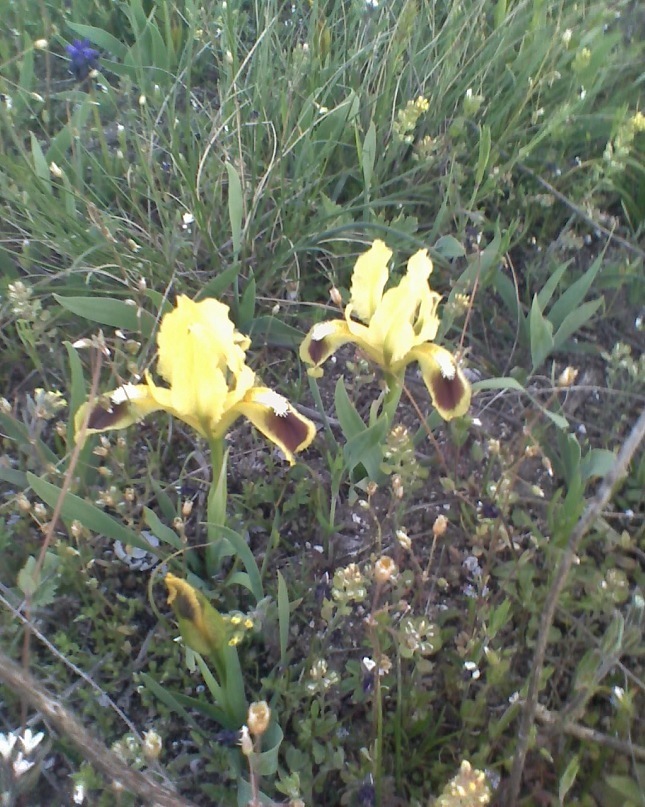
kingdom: Plantae
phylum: Tracheophyta
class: Liliopsida
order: Asparagales
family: Iridaceae
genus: Iris
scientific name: Iris pumila
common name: Dwarf iris
